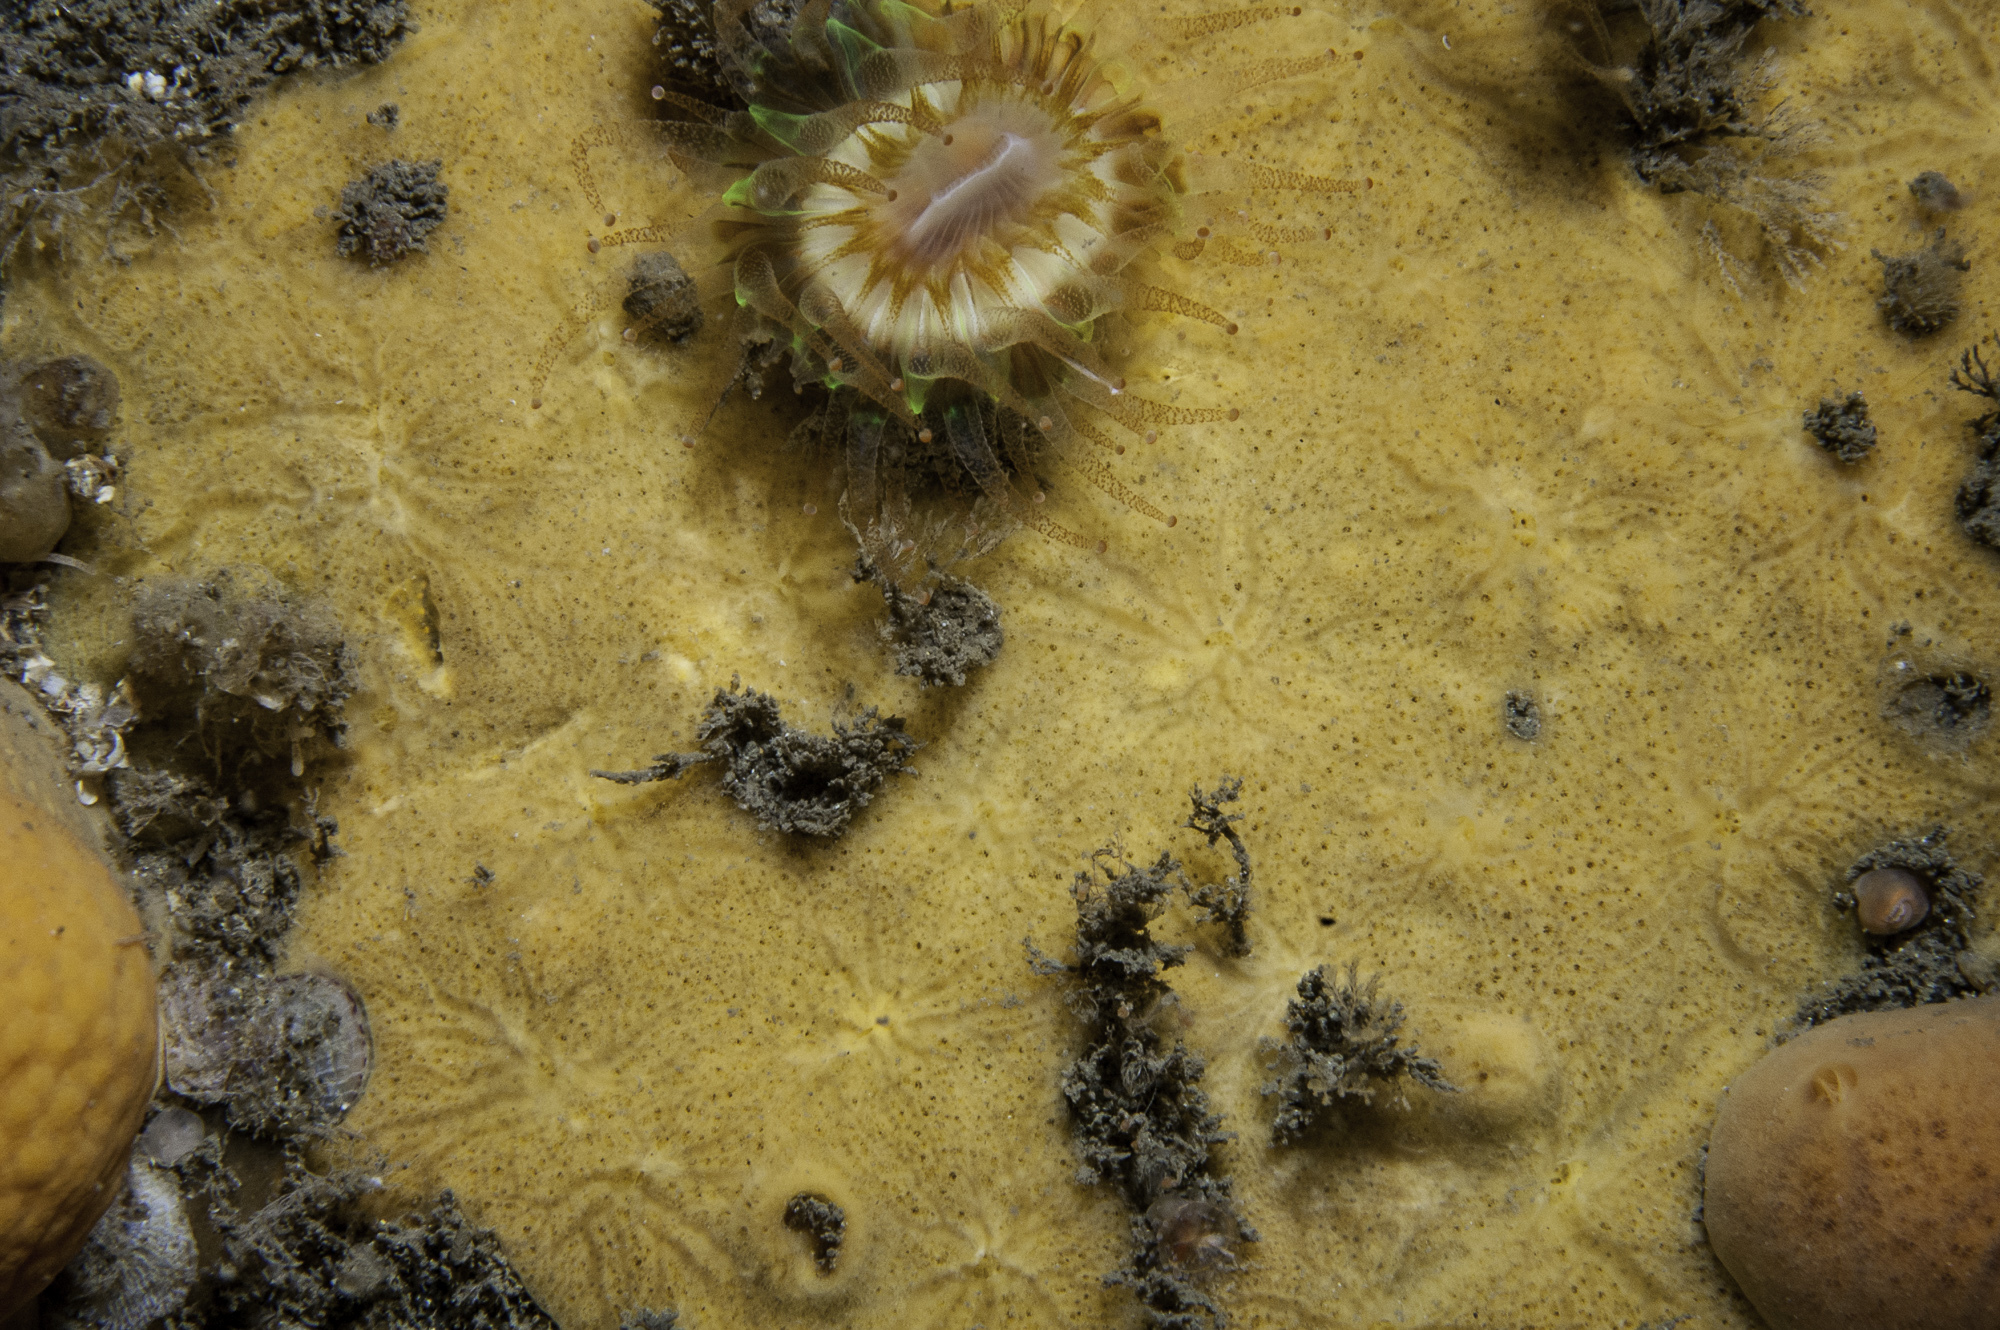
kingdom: Animalia
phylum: Porifera
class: Demospongiae
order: Poecilosclerida
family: Myxillidae
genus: Plocamiancora
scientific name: Plocamiancora arndti
